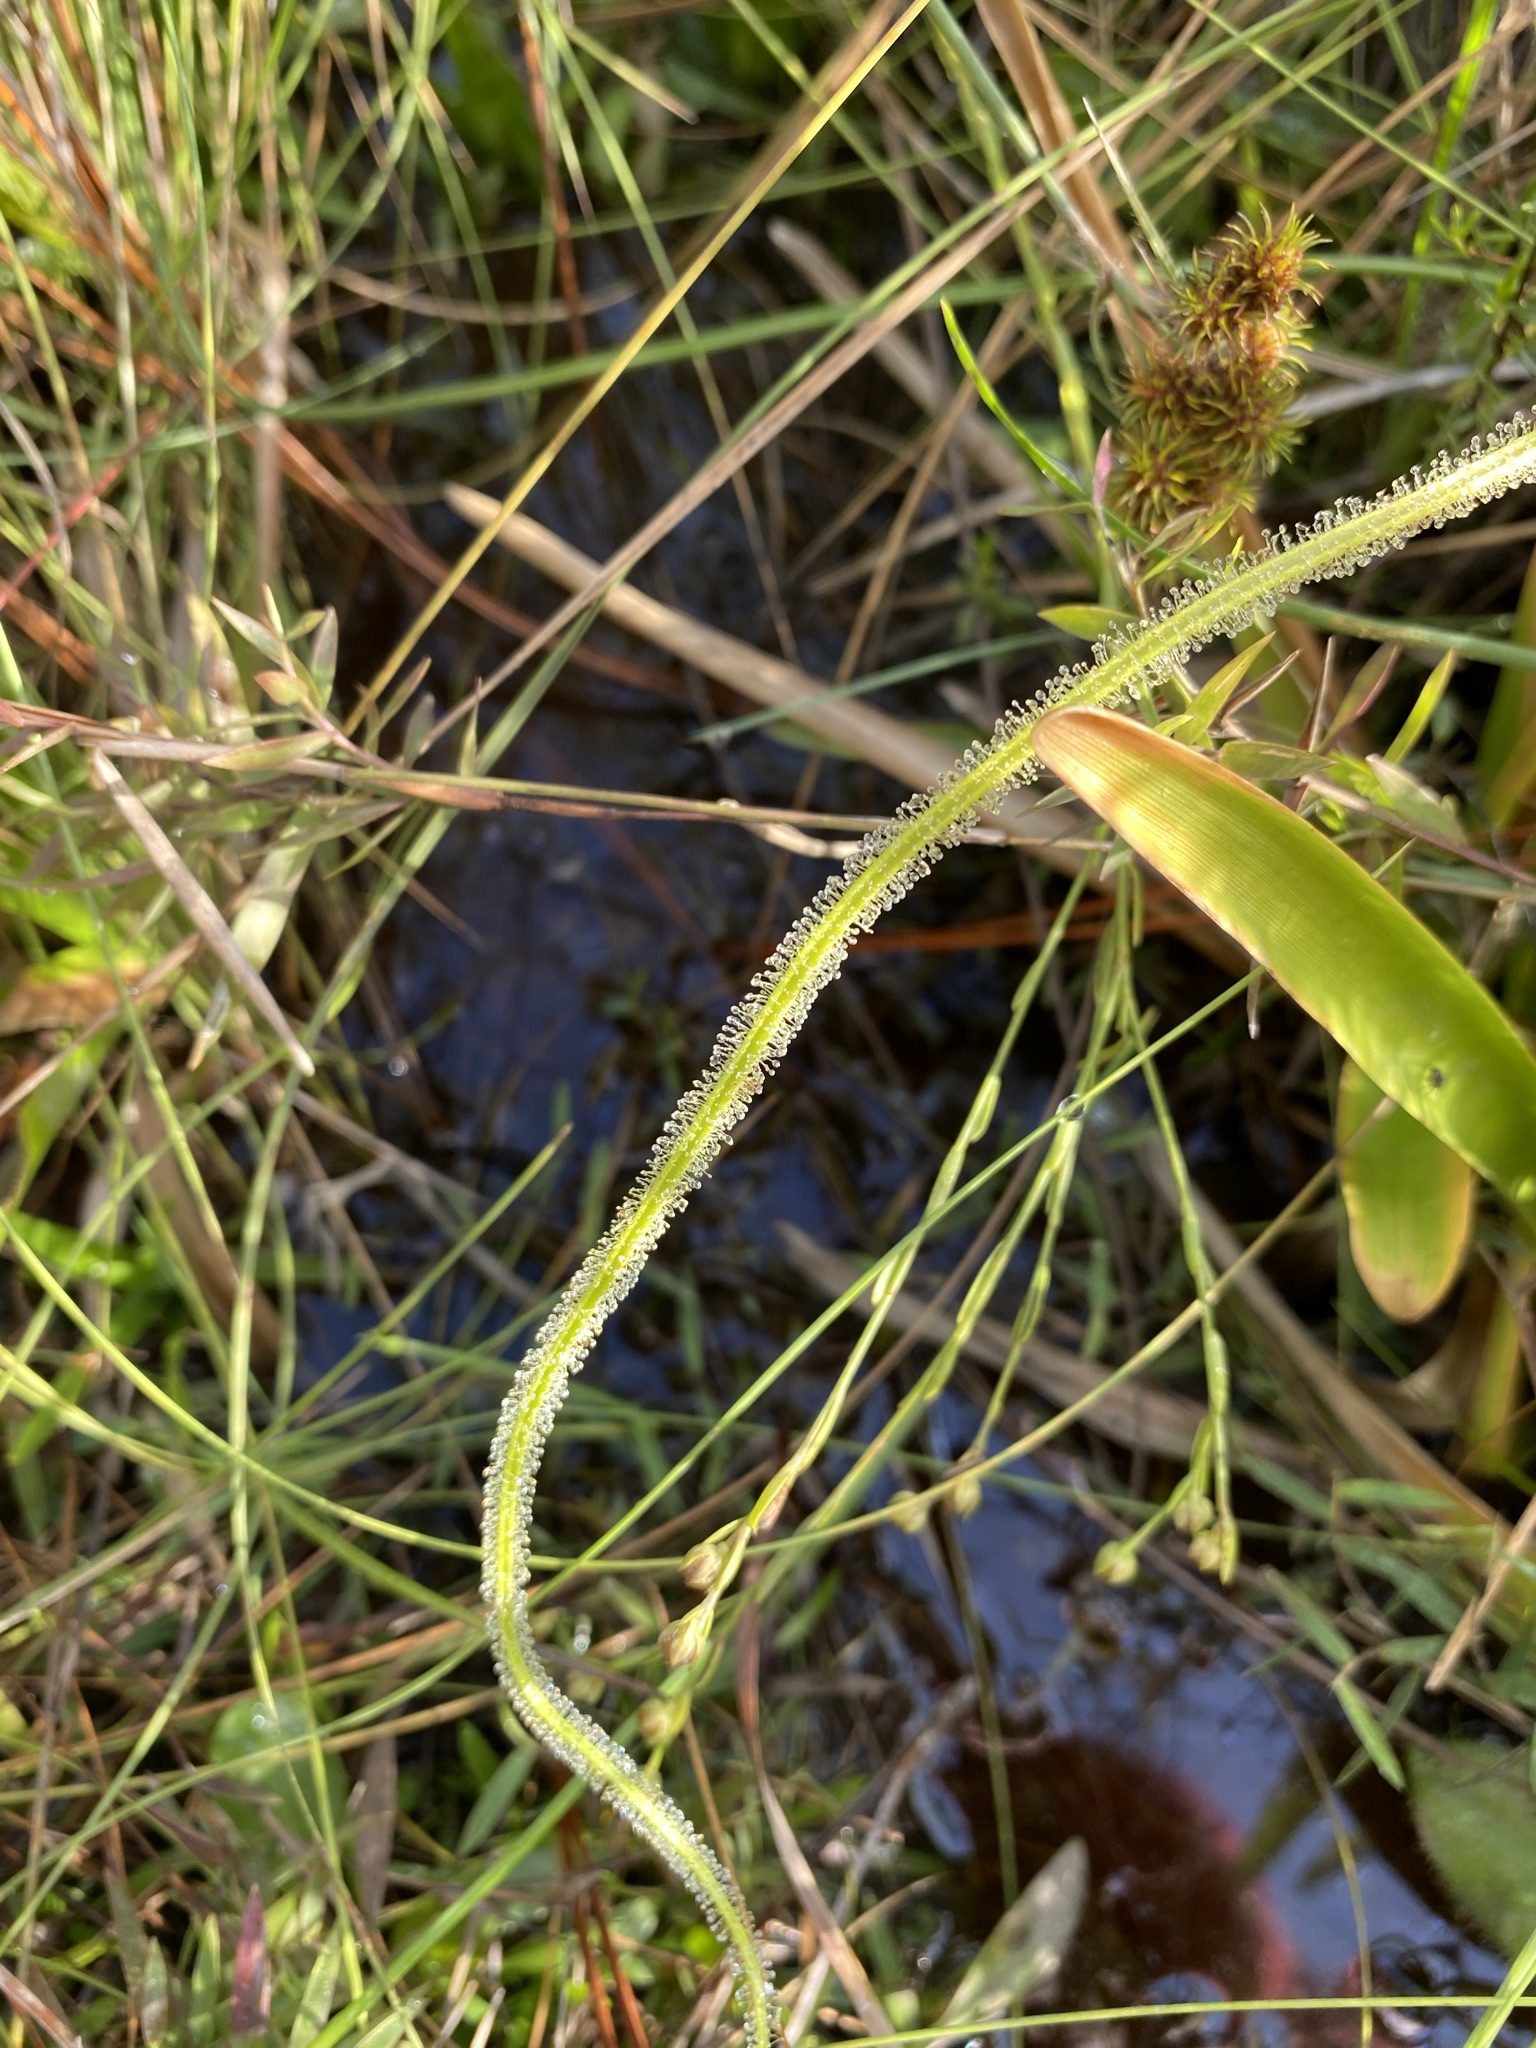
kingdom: Plantae
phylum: Tracheophyta
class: Magnoliopsida
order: Caryophyllales
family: Droseraceae
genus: Drosera
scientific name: Drosera filiformis
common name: Dew-thread
